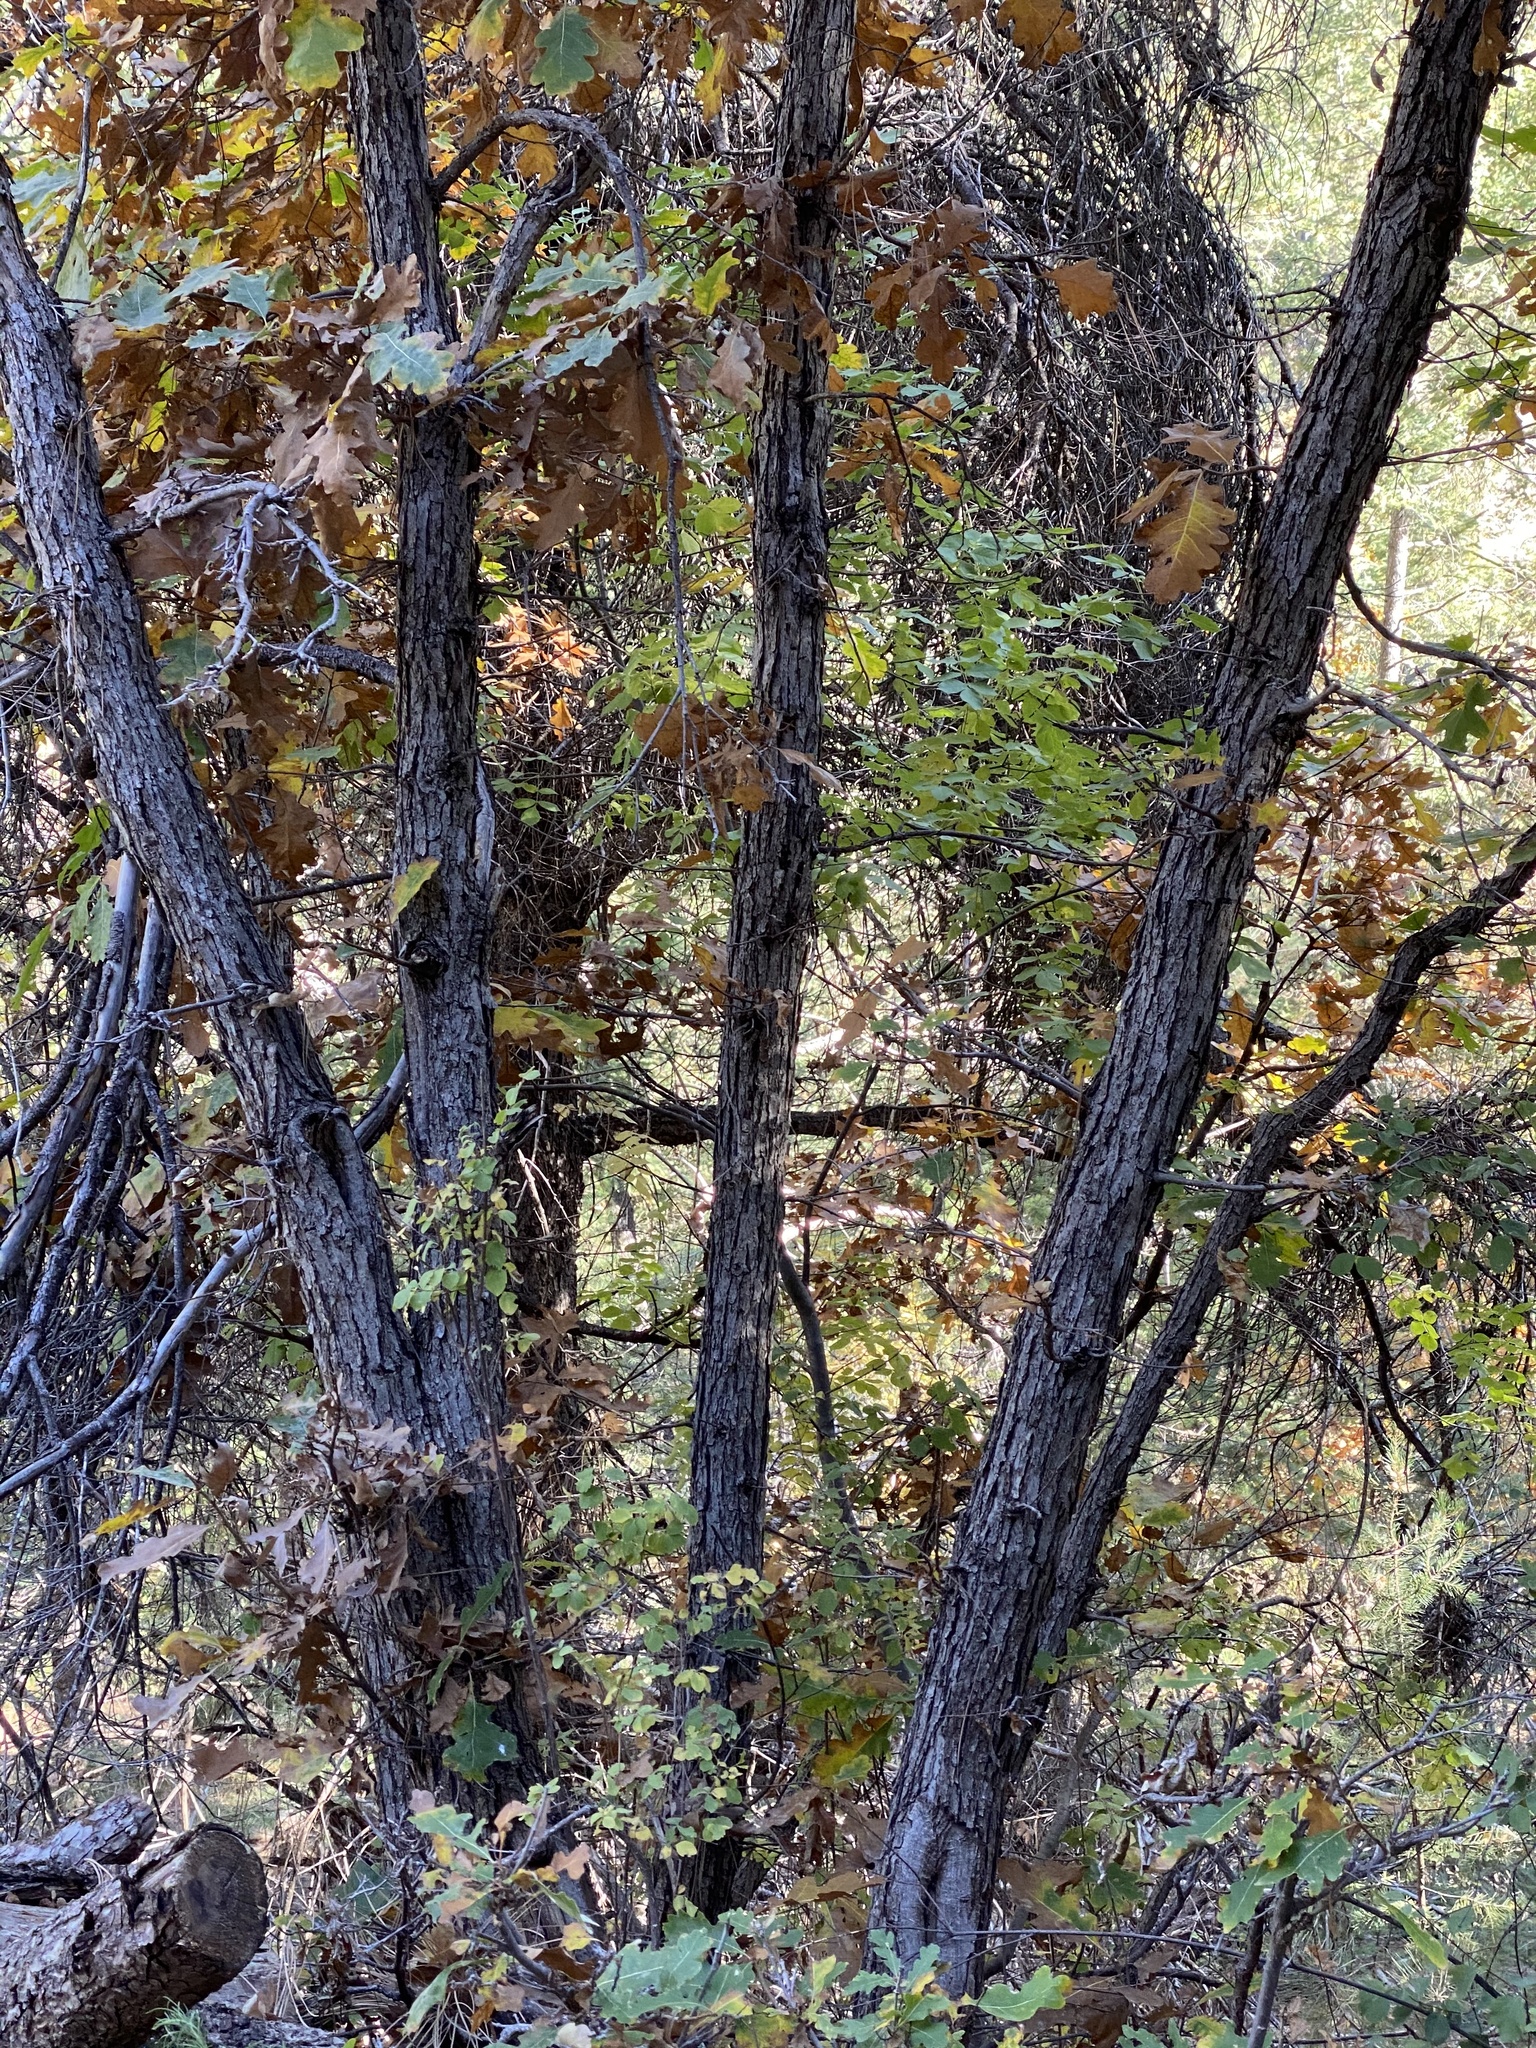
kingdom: Plantae
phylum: Tracheophyta
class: Magnoliopsida
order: Fagales
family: Fagaceae
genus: Quercus
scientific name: Quercus gambelii
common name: Gambel oak
